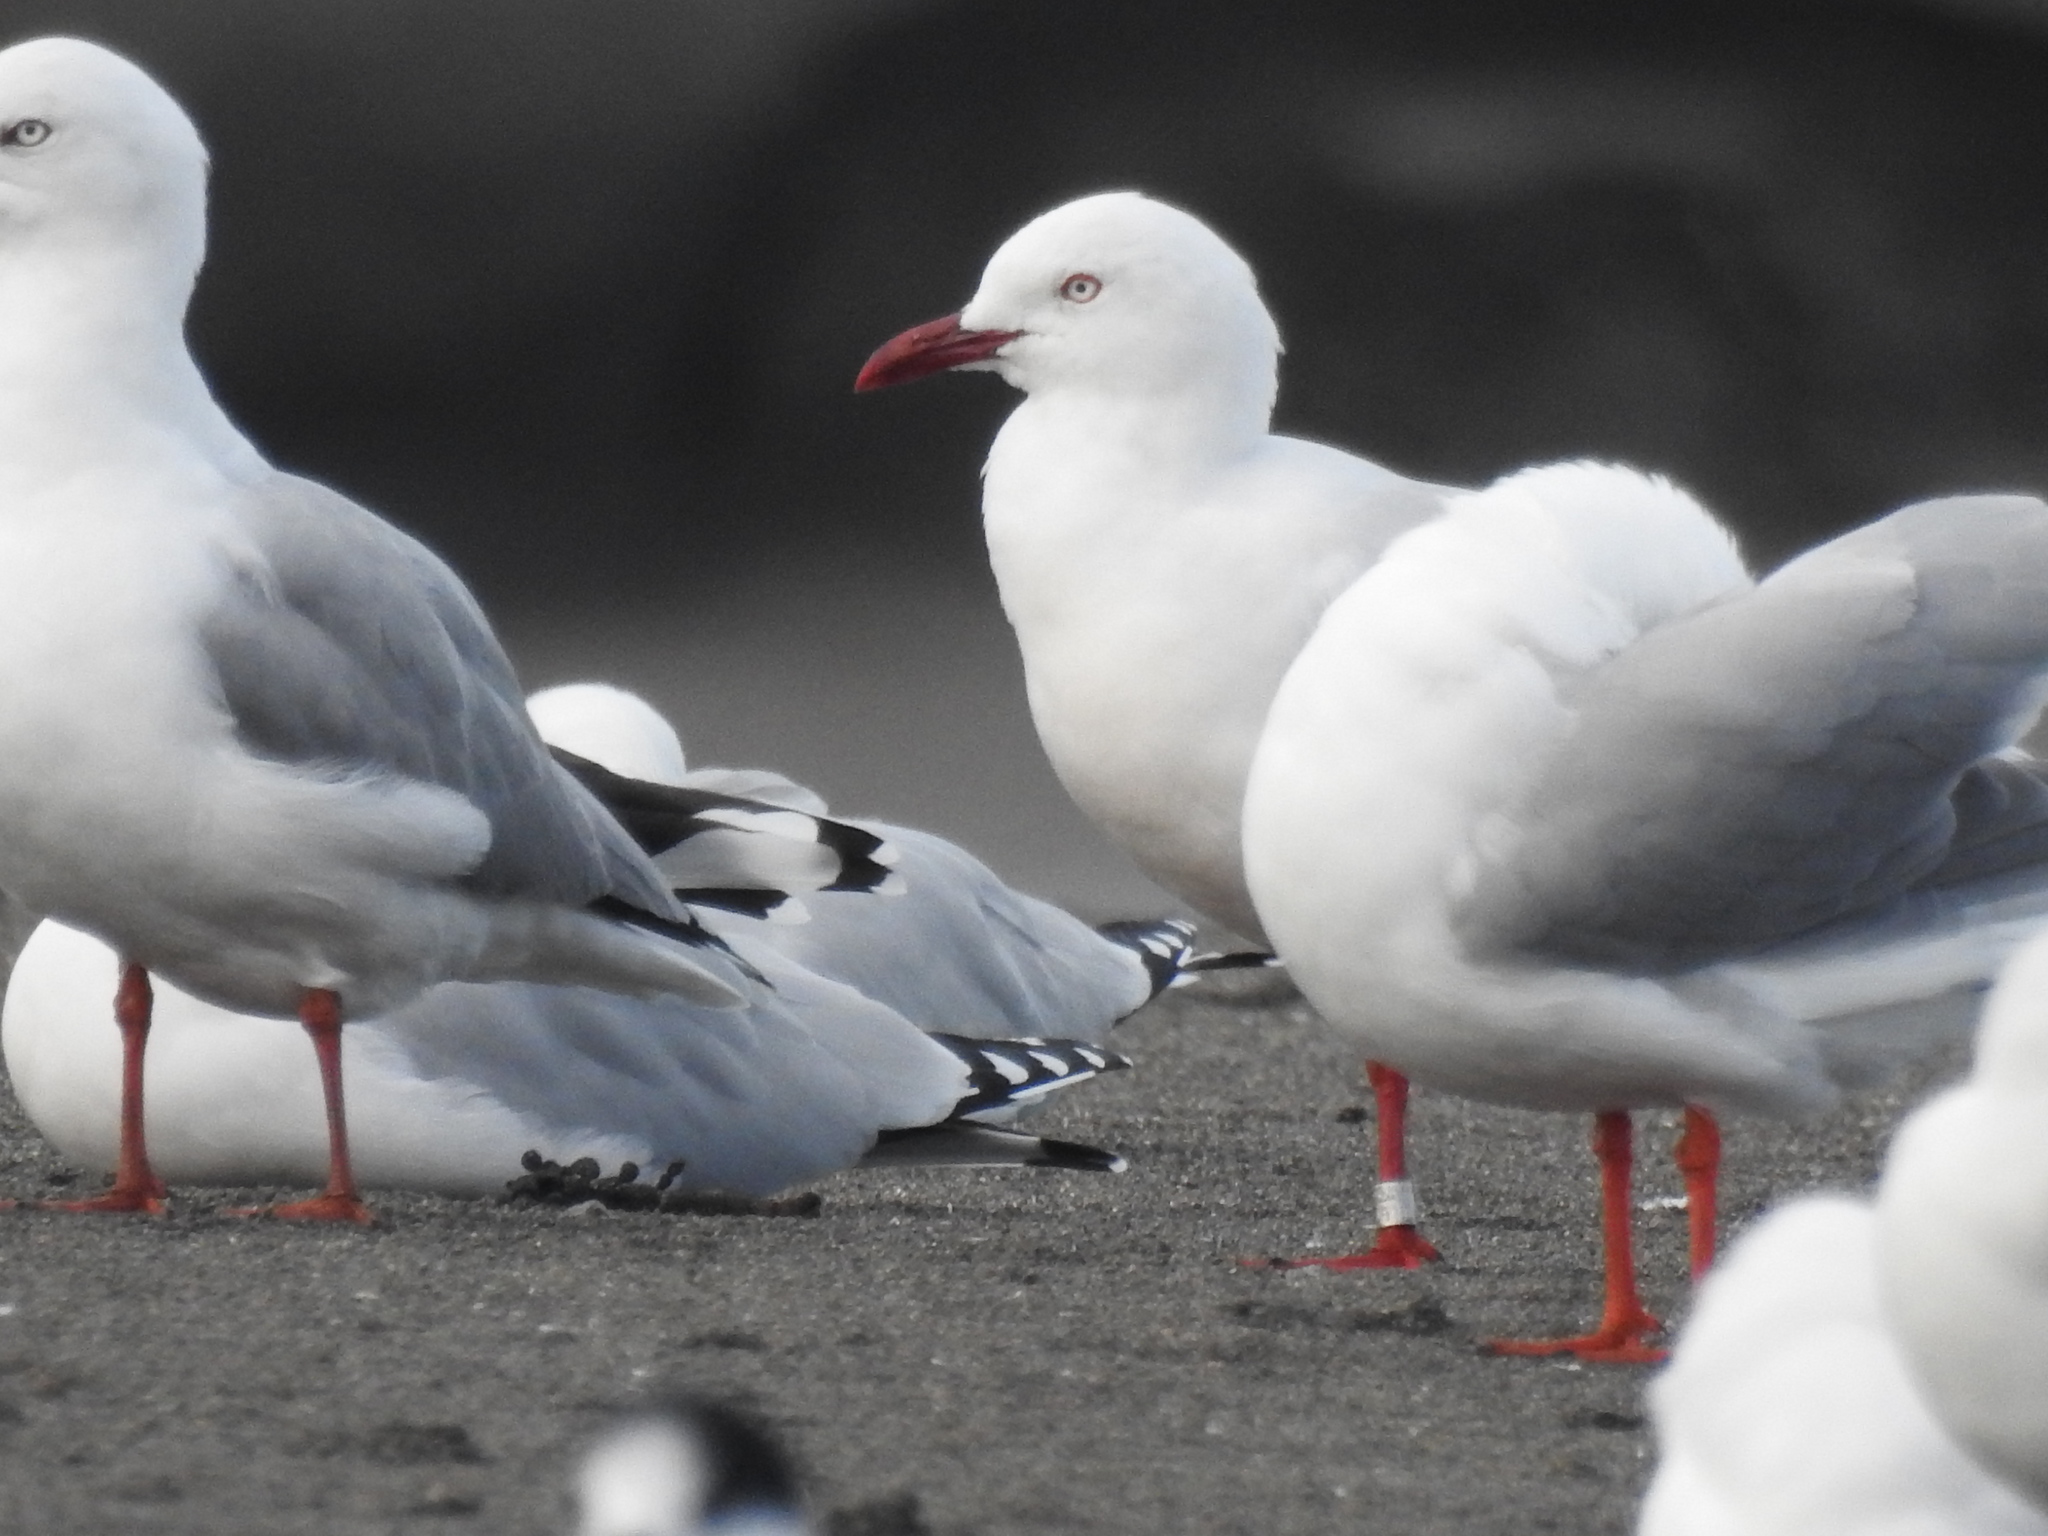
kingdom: Animalia
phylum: Chordata
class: Aves
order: Charadriiformes
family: Laridae
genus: Chroicocephalus
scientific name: Chroicocephalus novaehollandiae
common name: Silver gull
